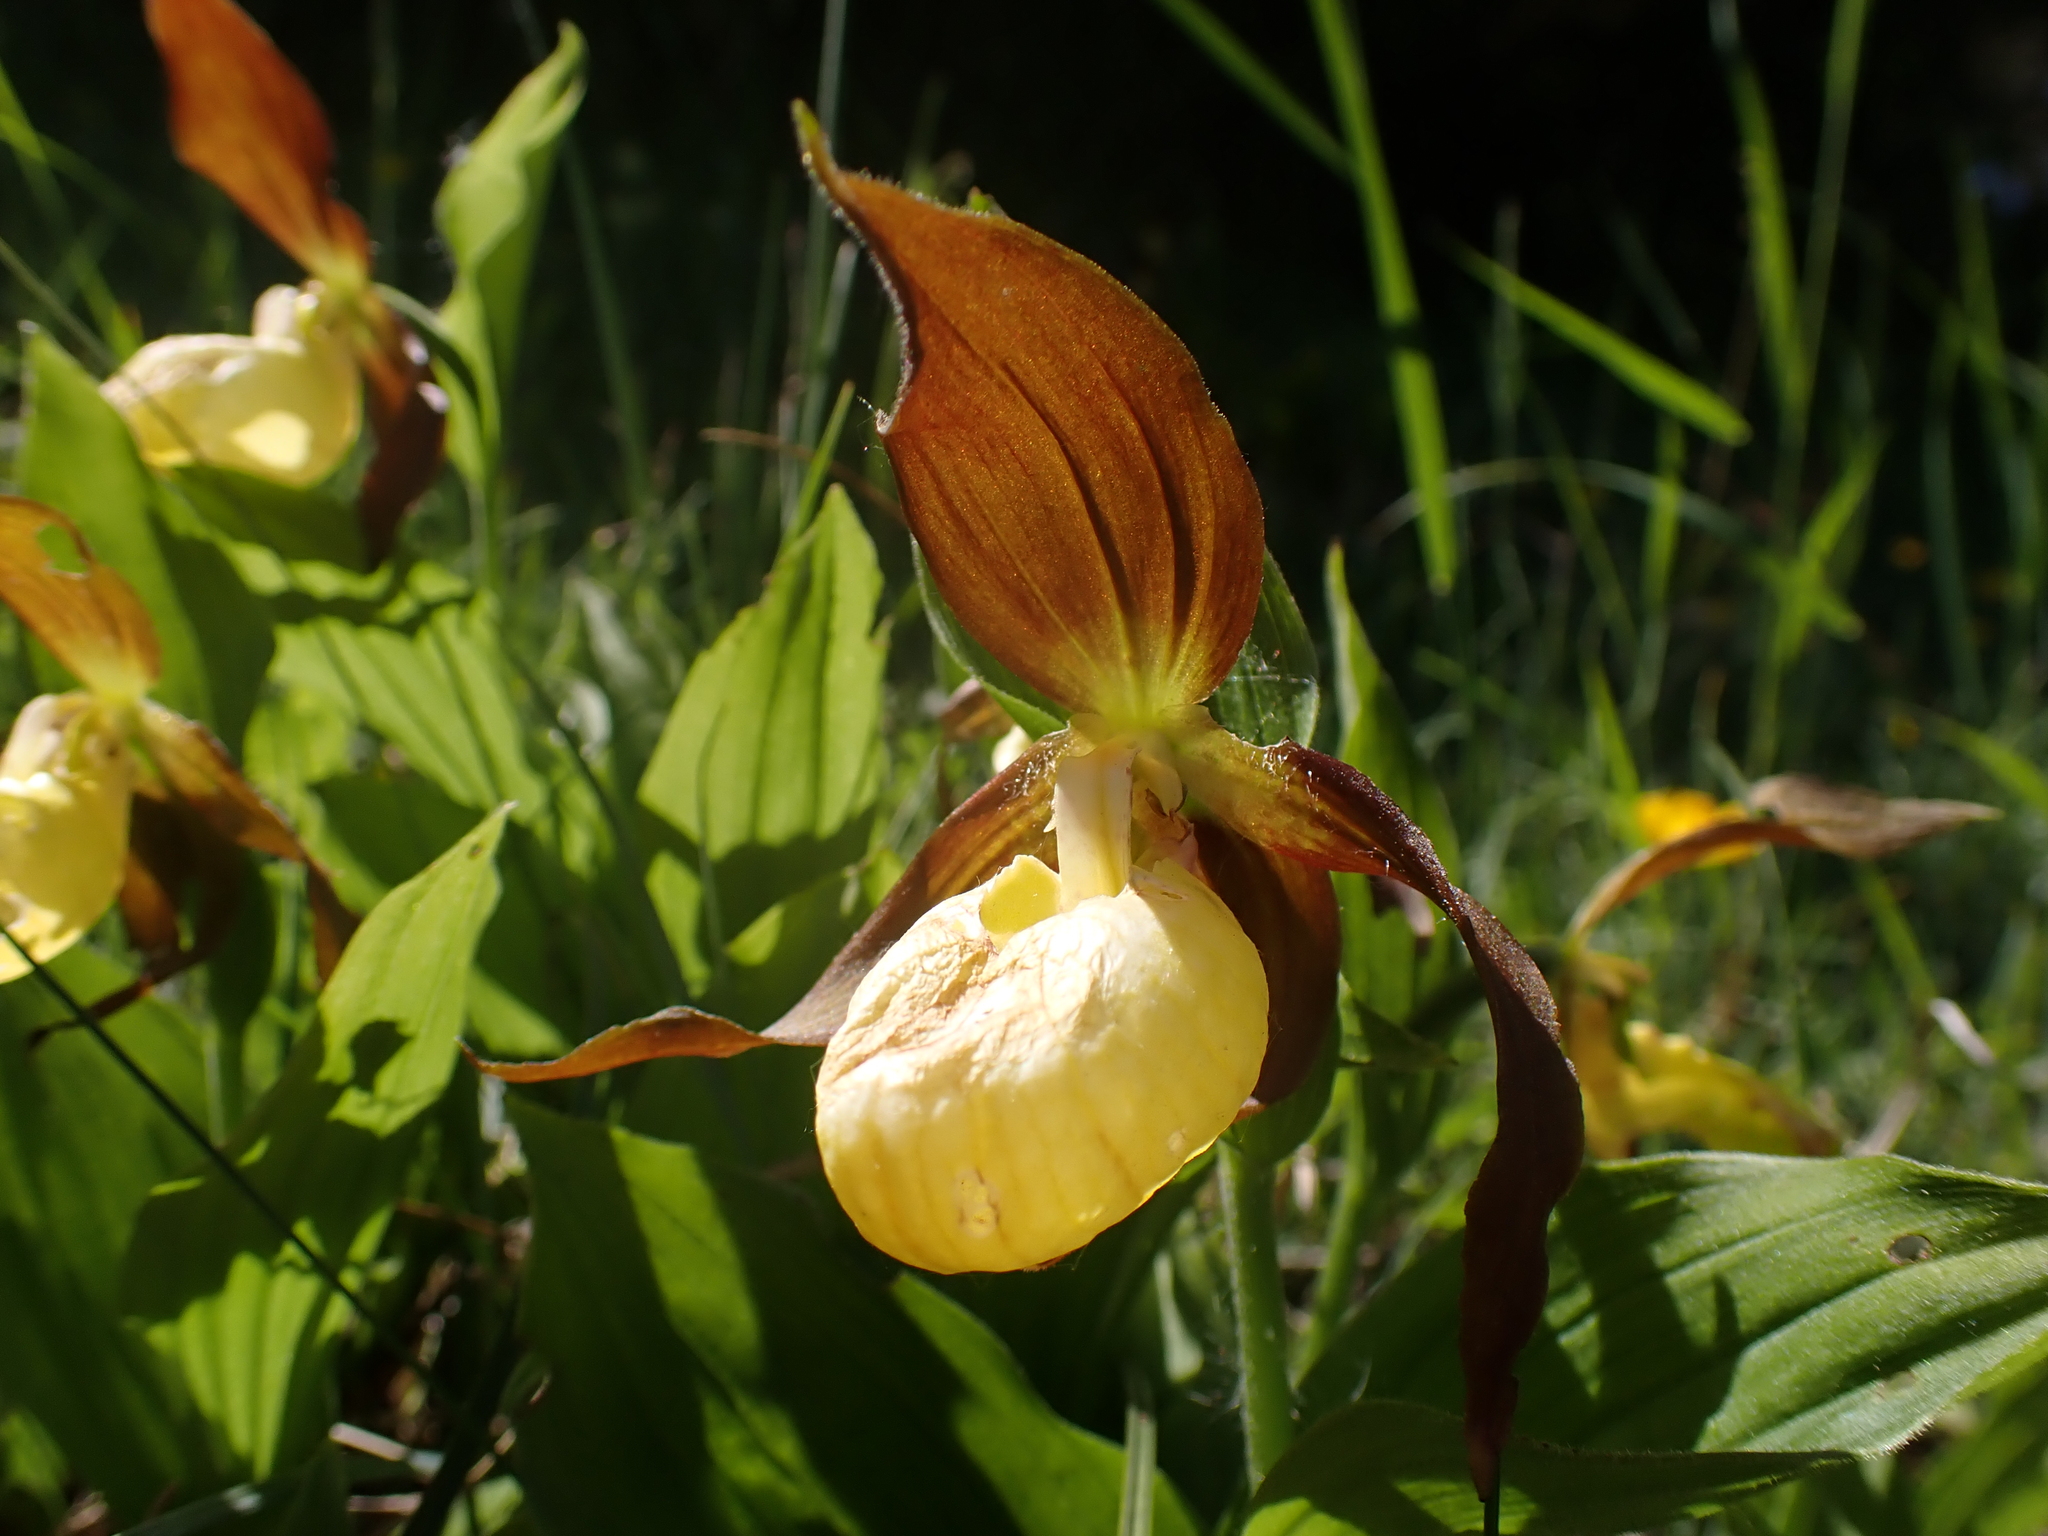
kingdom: Plantae
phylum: Tracheophyta
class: Liliopsida
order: Asparagales
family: Orchidaceae
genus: Cypripedium
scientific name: Cypripedium calceolus
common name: Lady's-slipper
